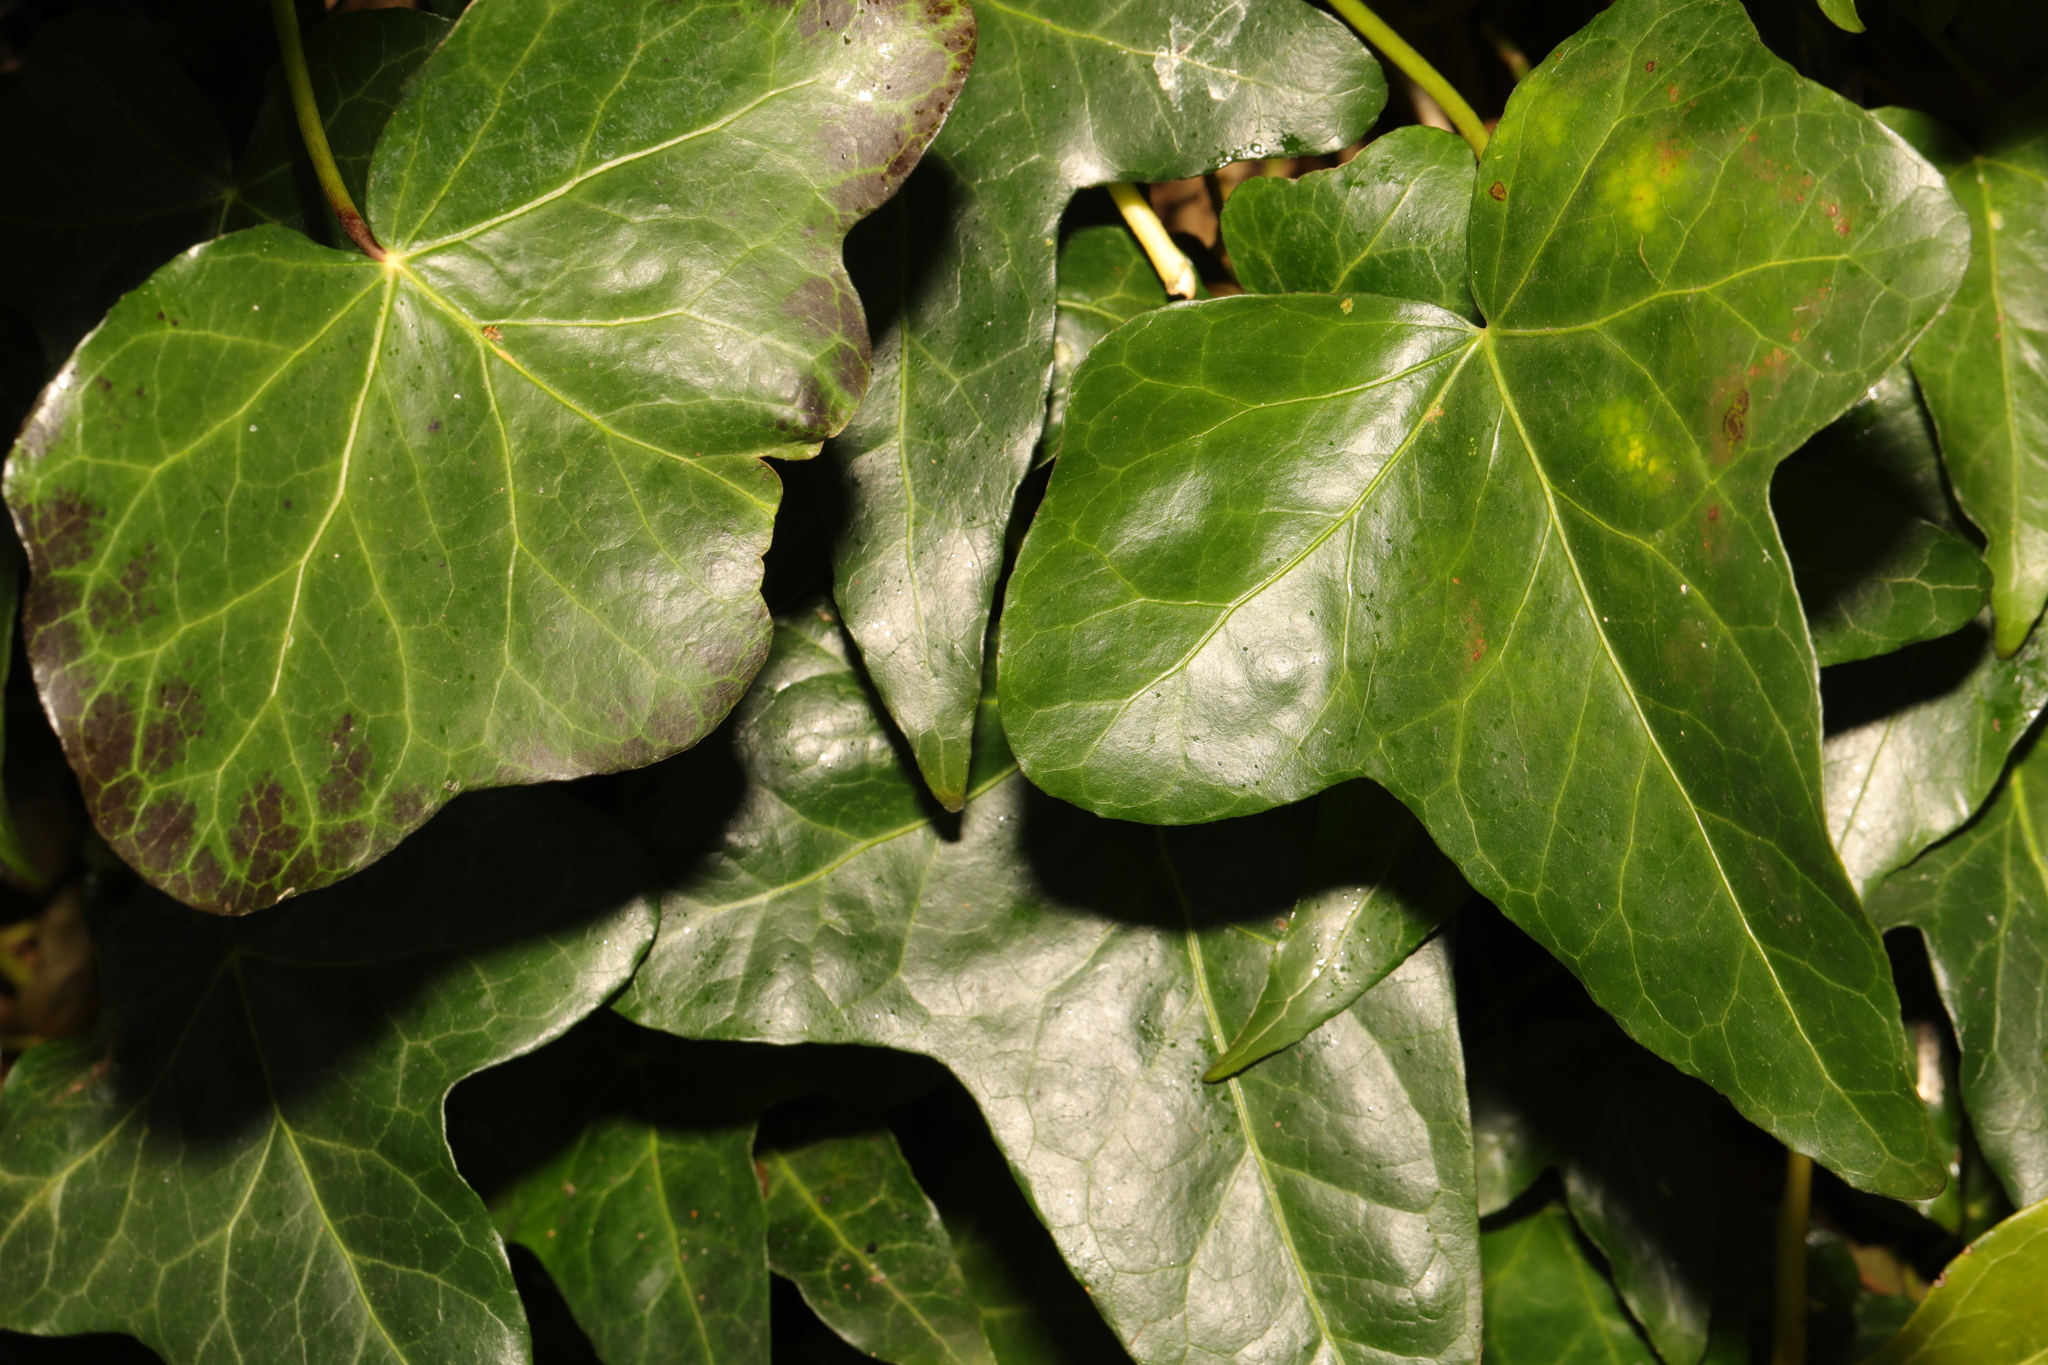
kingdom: Plantae
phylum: Tracheophyta
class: Magnoliopsida
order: Apiales
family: Araliaceae
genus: Hedera
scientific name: Hedera helix
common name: Ivy
